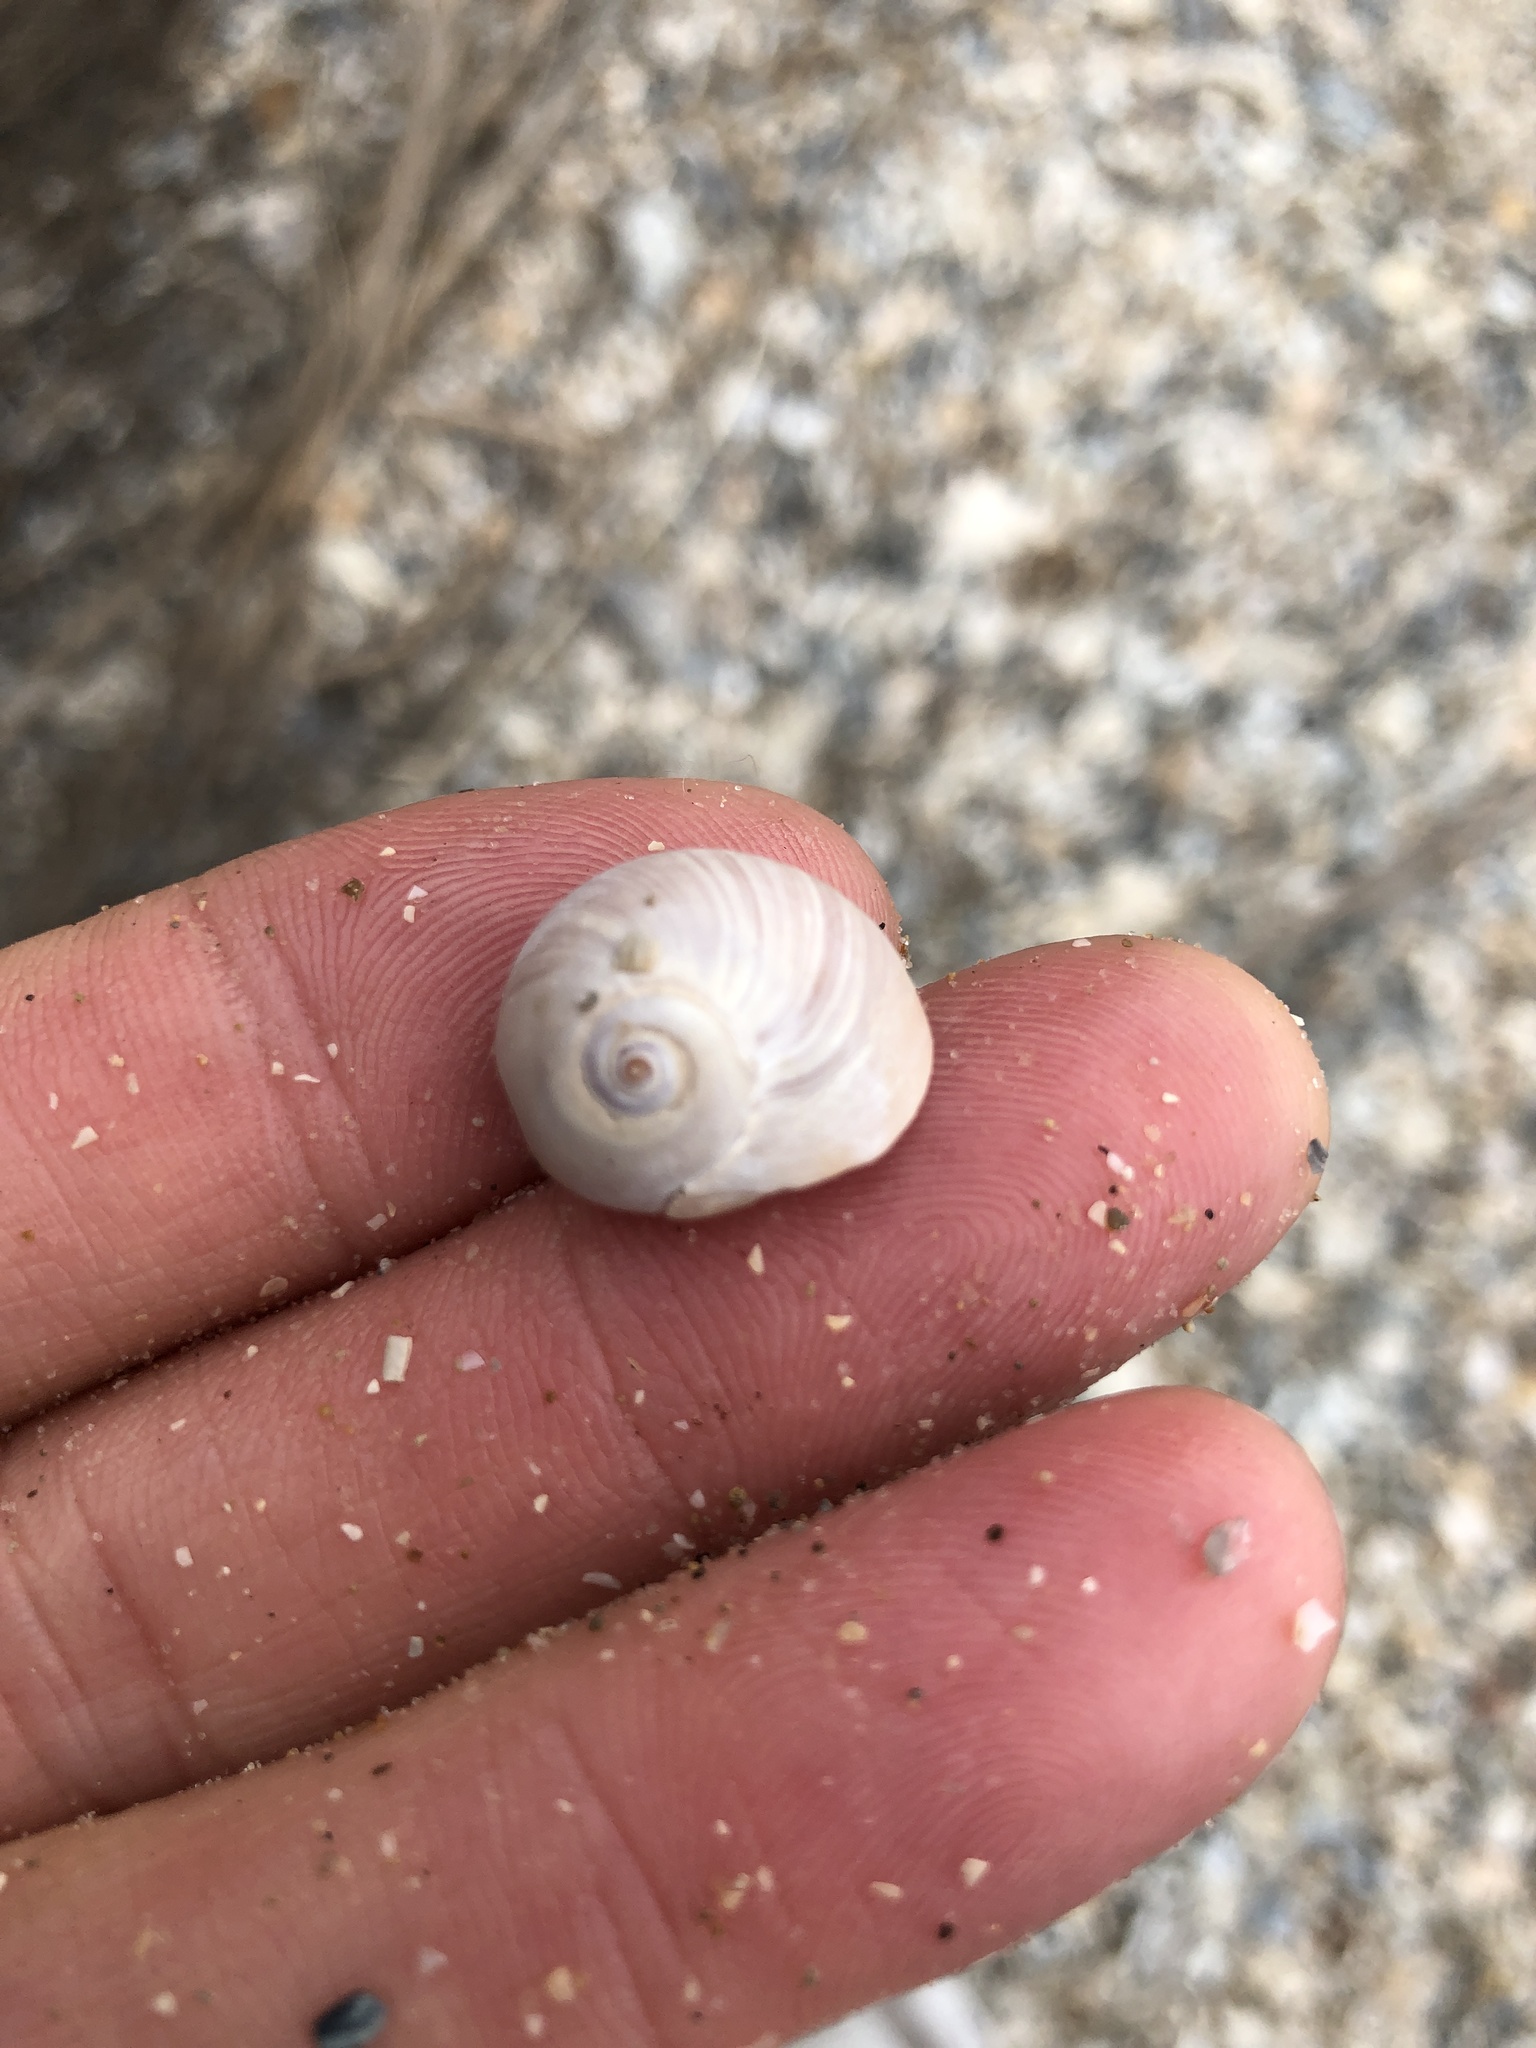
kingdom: Animalia
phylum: Mollusca
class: Gastropoda
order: Littorinimorpha
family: Naticidae
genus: Neverita
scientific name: Neverita delessertiana
